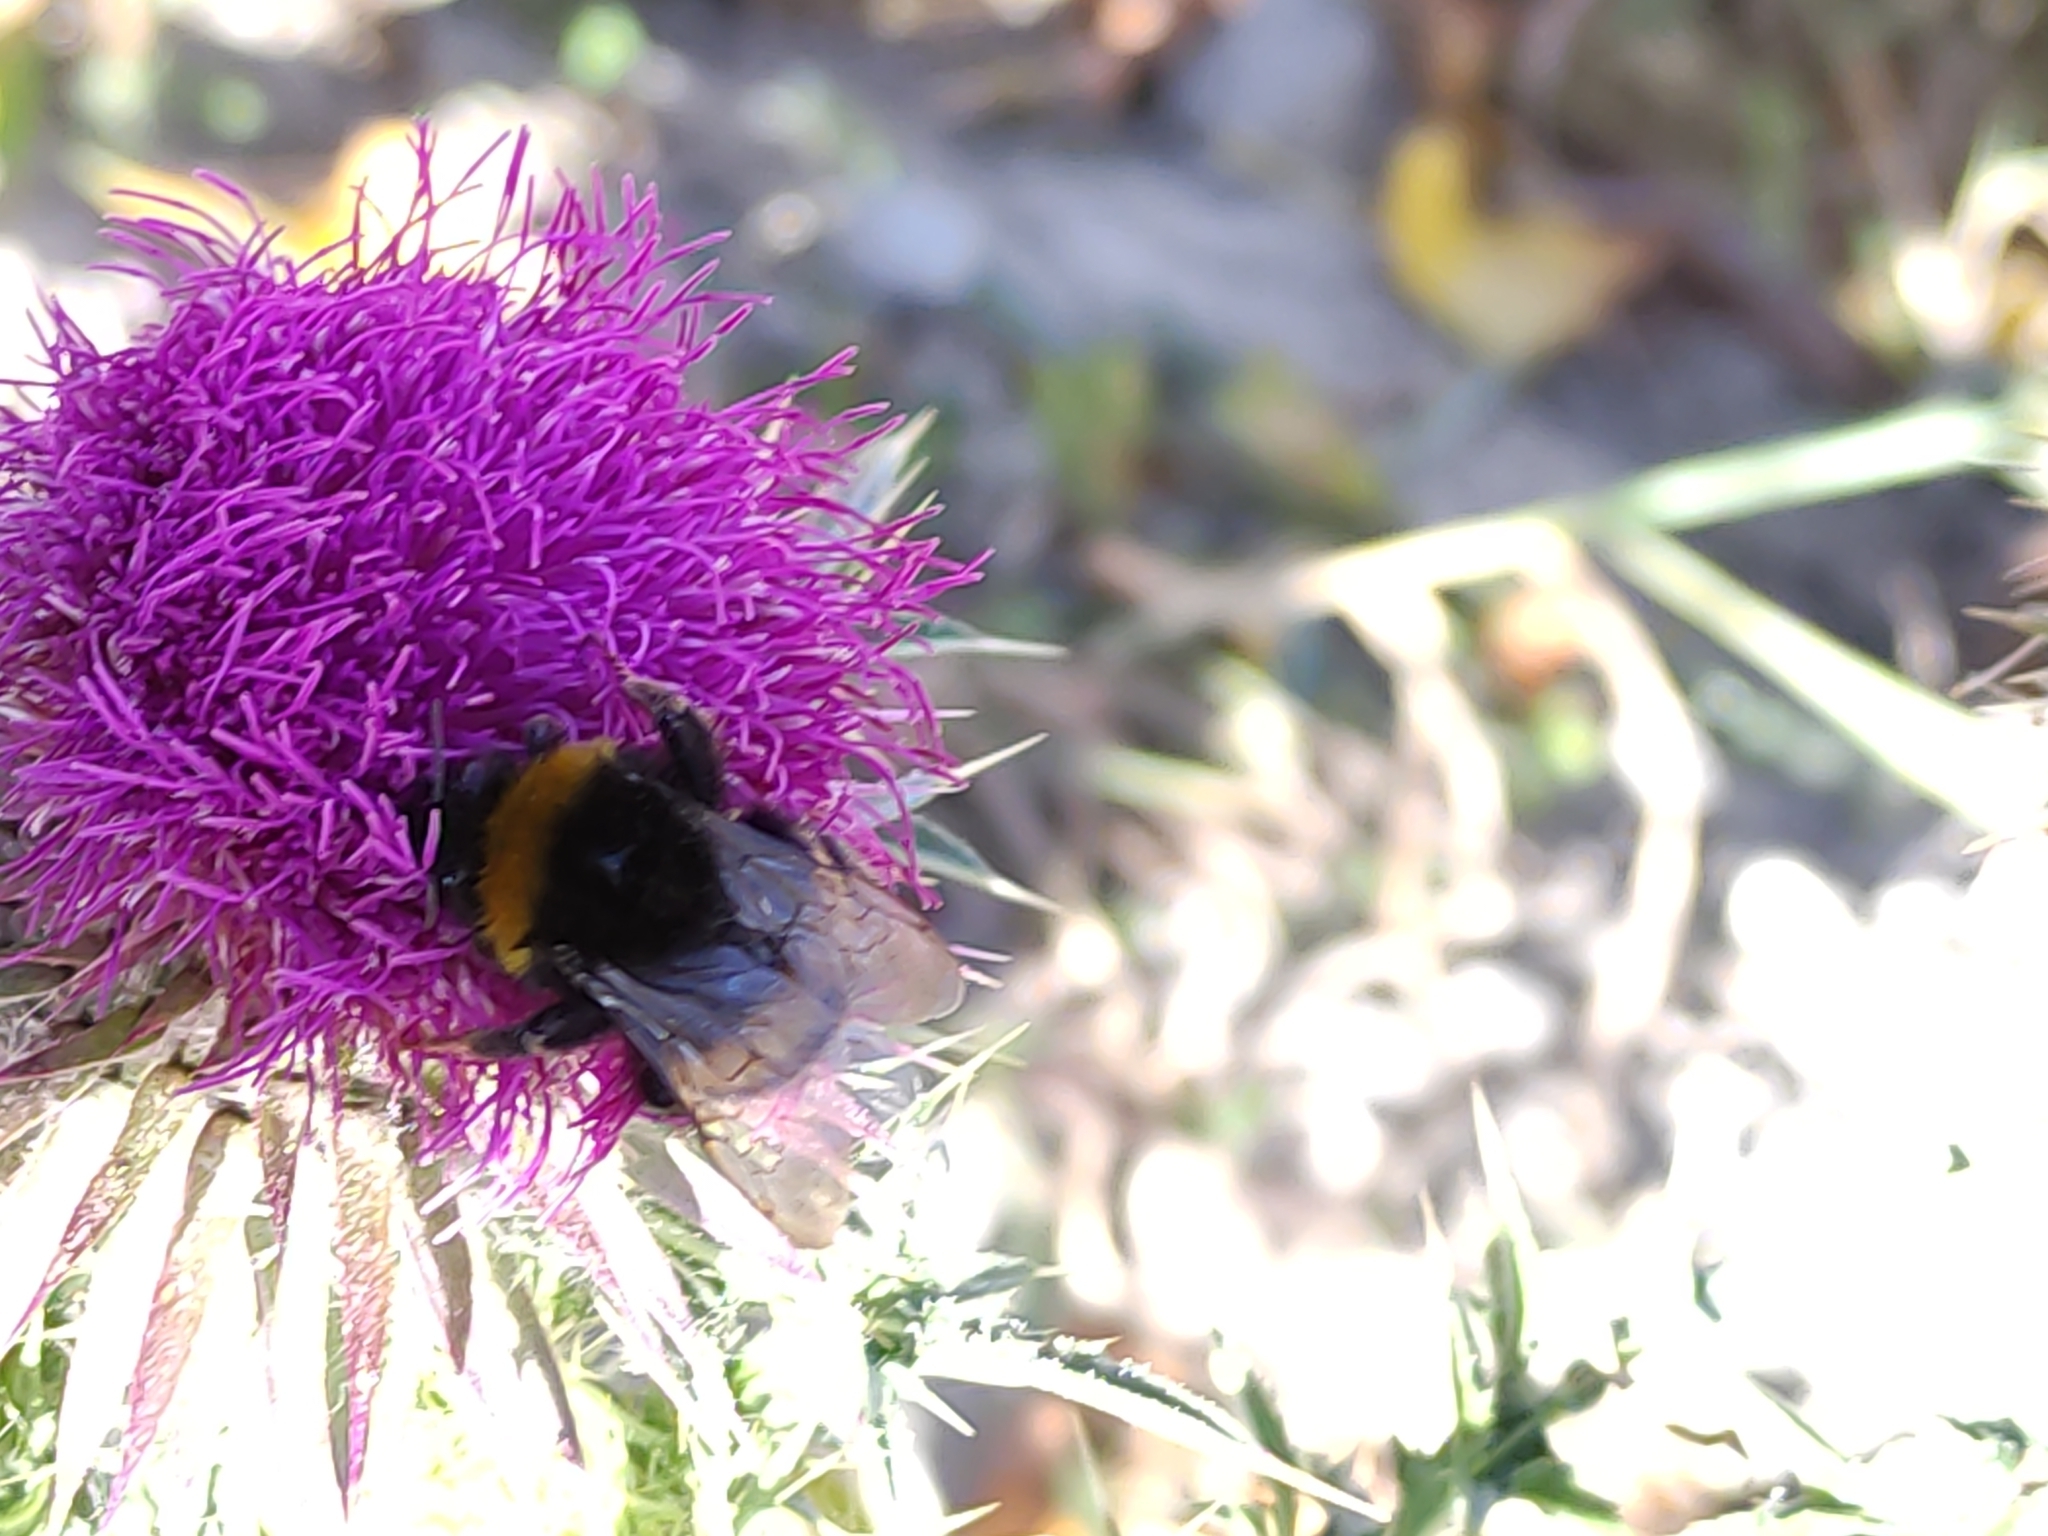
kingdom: Animalia
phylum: Arthropoda
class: Insecta
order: Hymenoptera
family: Apidae
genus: Bombus
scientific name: Bombus terrestris
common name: Buff-tailed bumblebee
